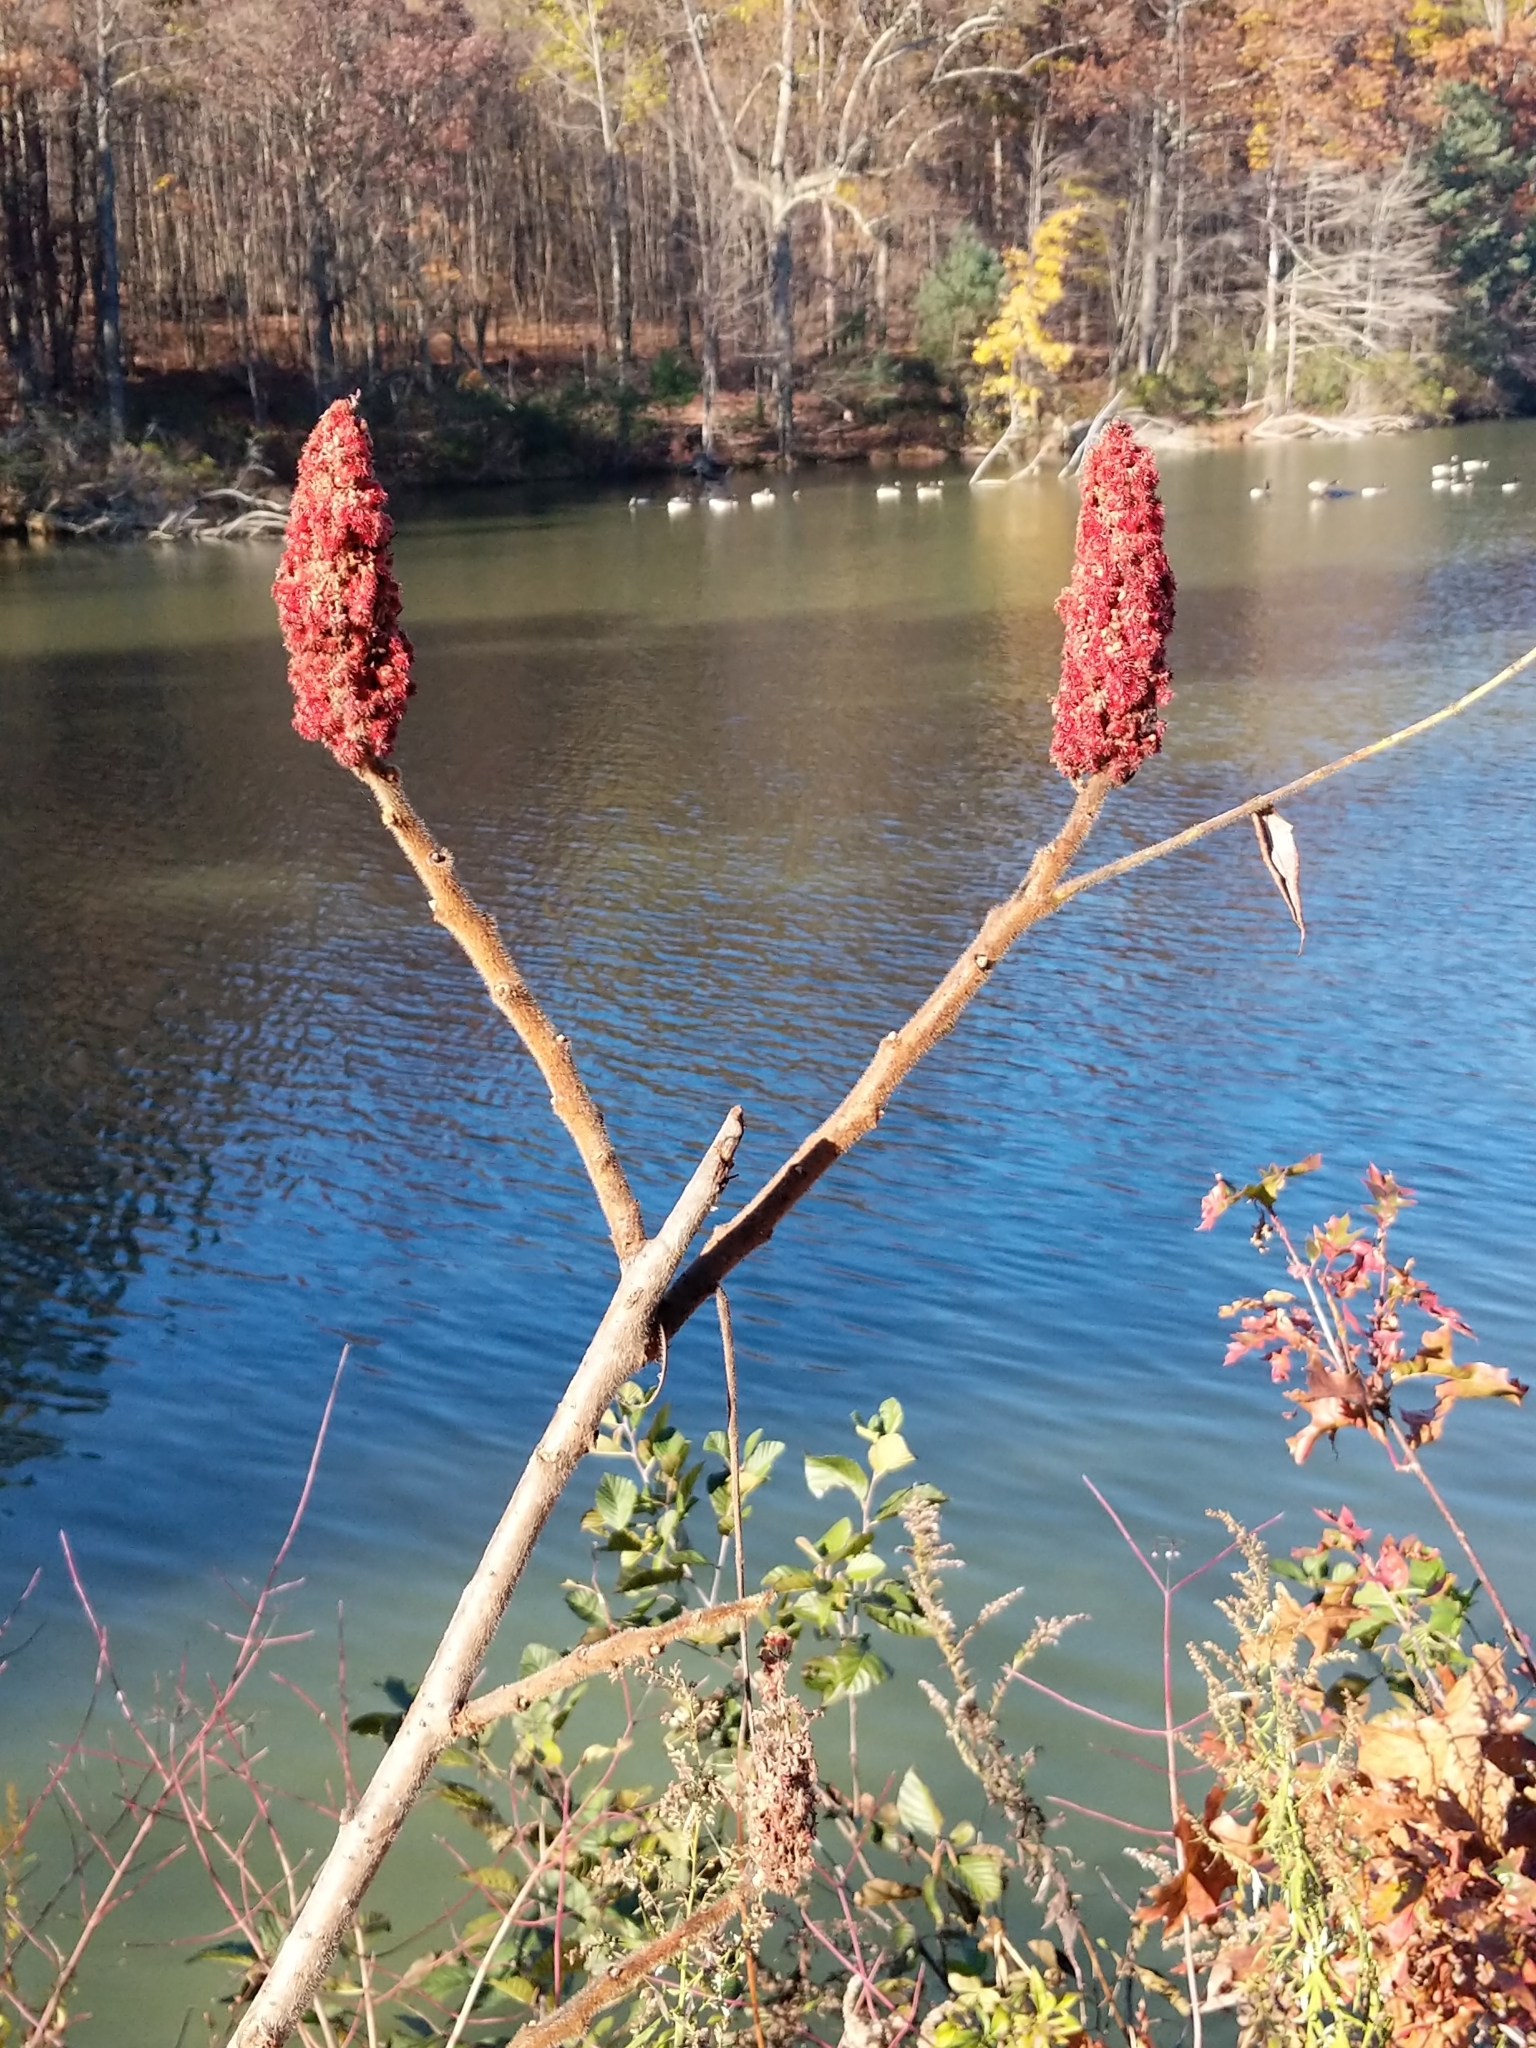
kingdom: Plantae
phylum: Tracheophyta
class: Magnoliopsida
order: Sapindales
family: Anacardiaceae
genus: Rhus
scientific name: Rhus typhina
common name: Staghorn sumac
